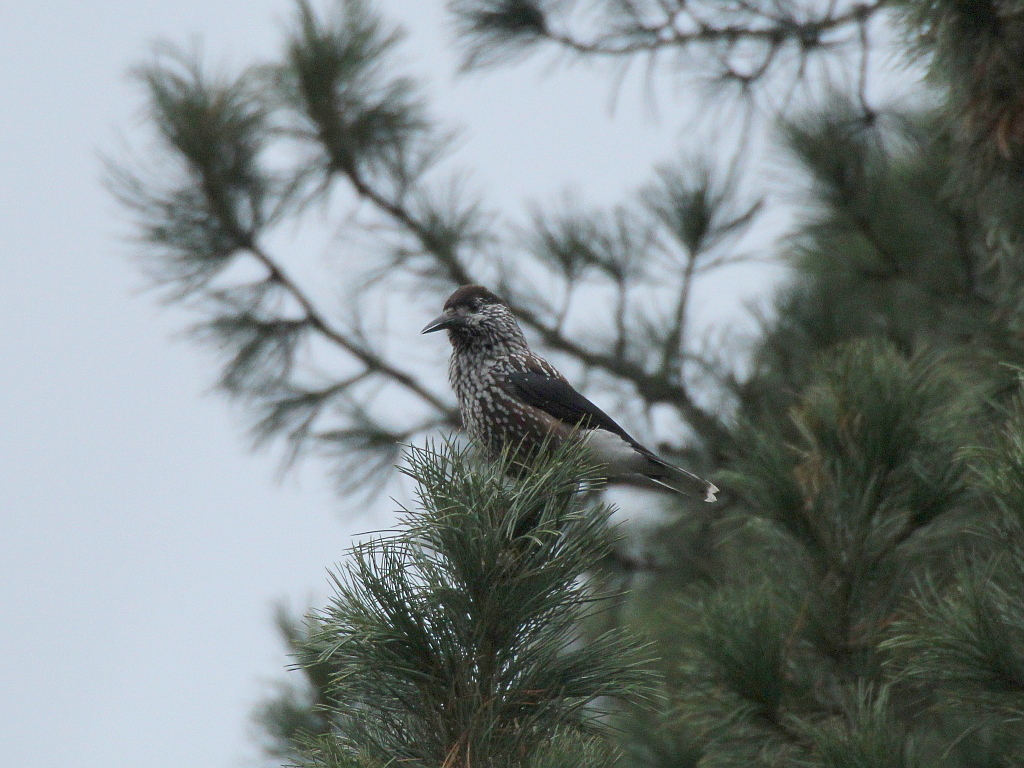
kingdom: Animalia
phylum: Chordata
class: Aves
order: Passeriformes
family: Corvidae
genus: Nucifraga
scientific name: Nucifraga caryocatactes
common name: Spotted nutcracker
